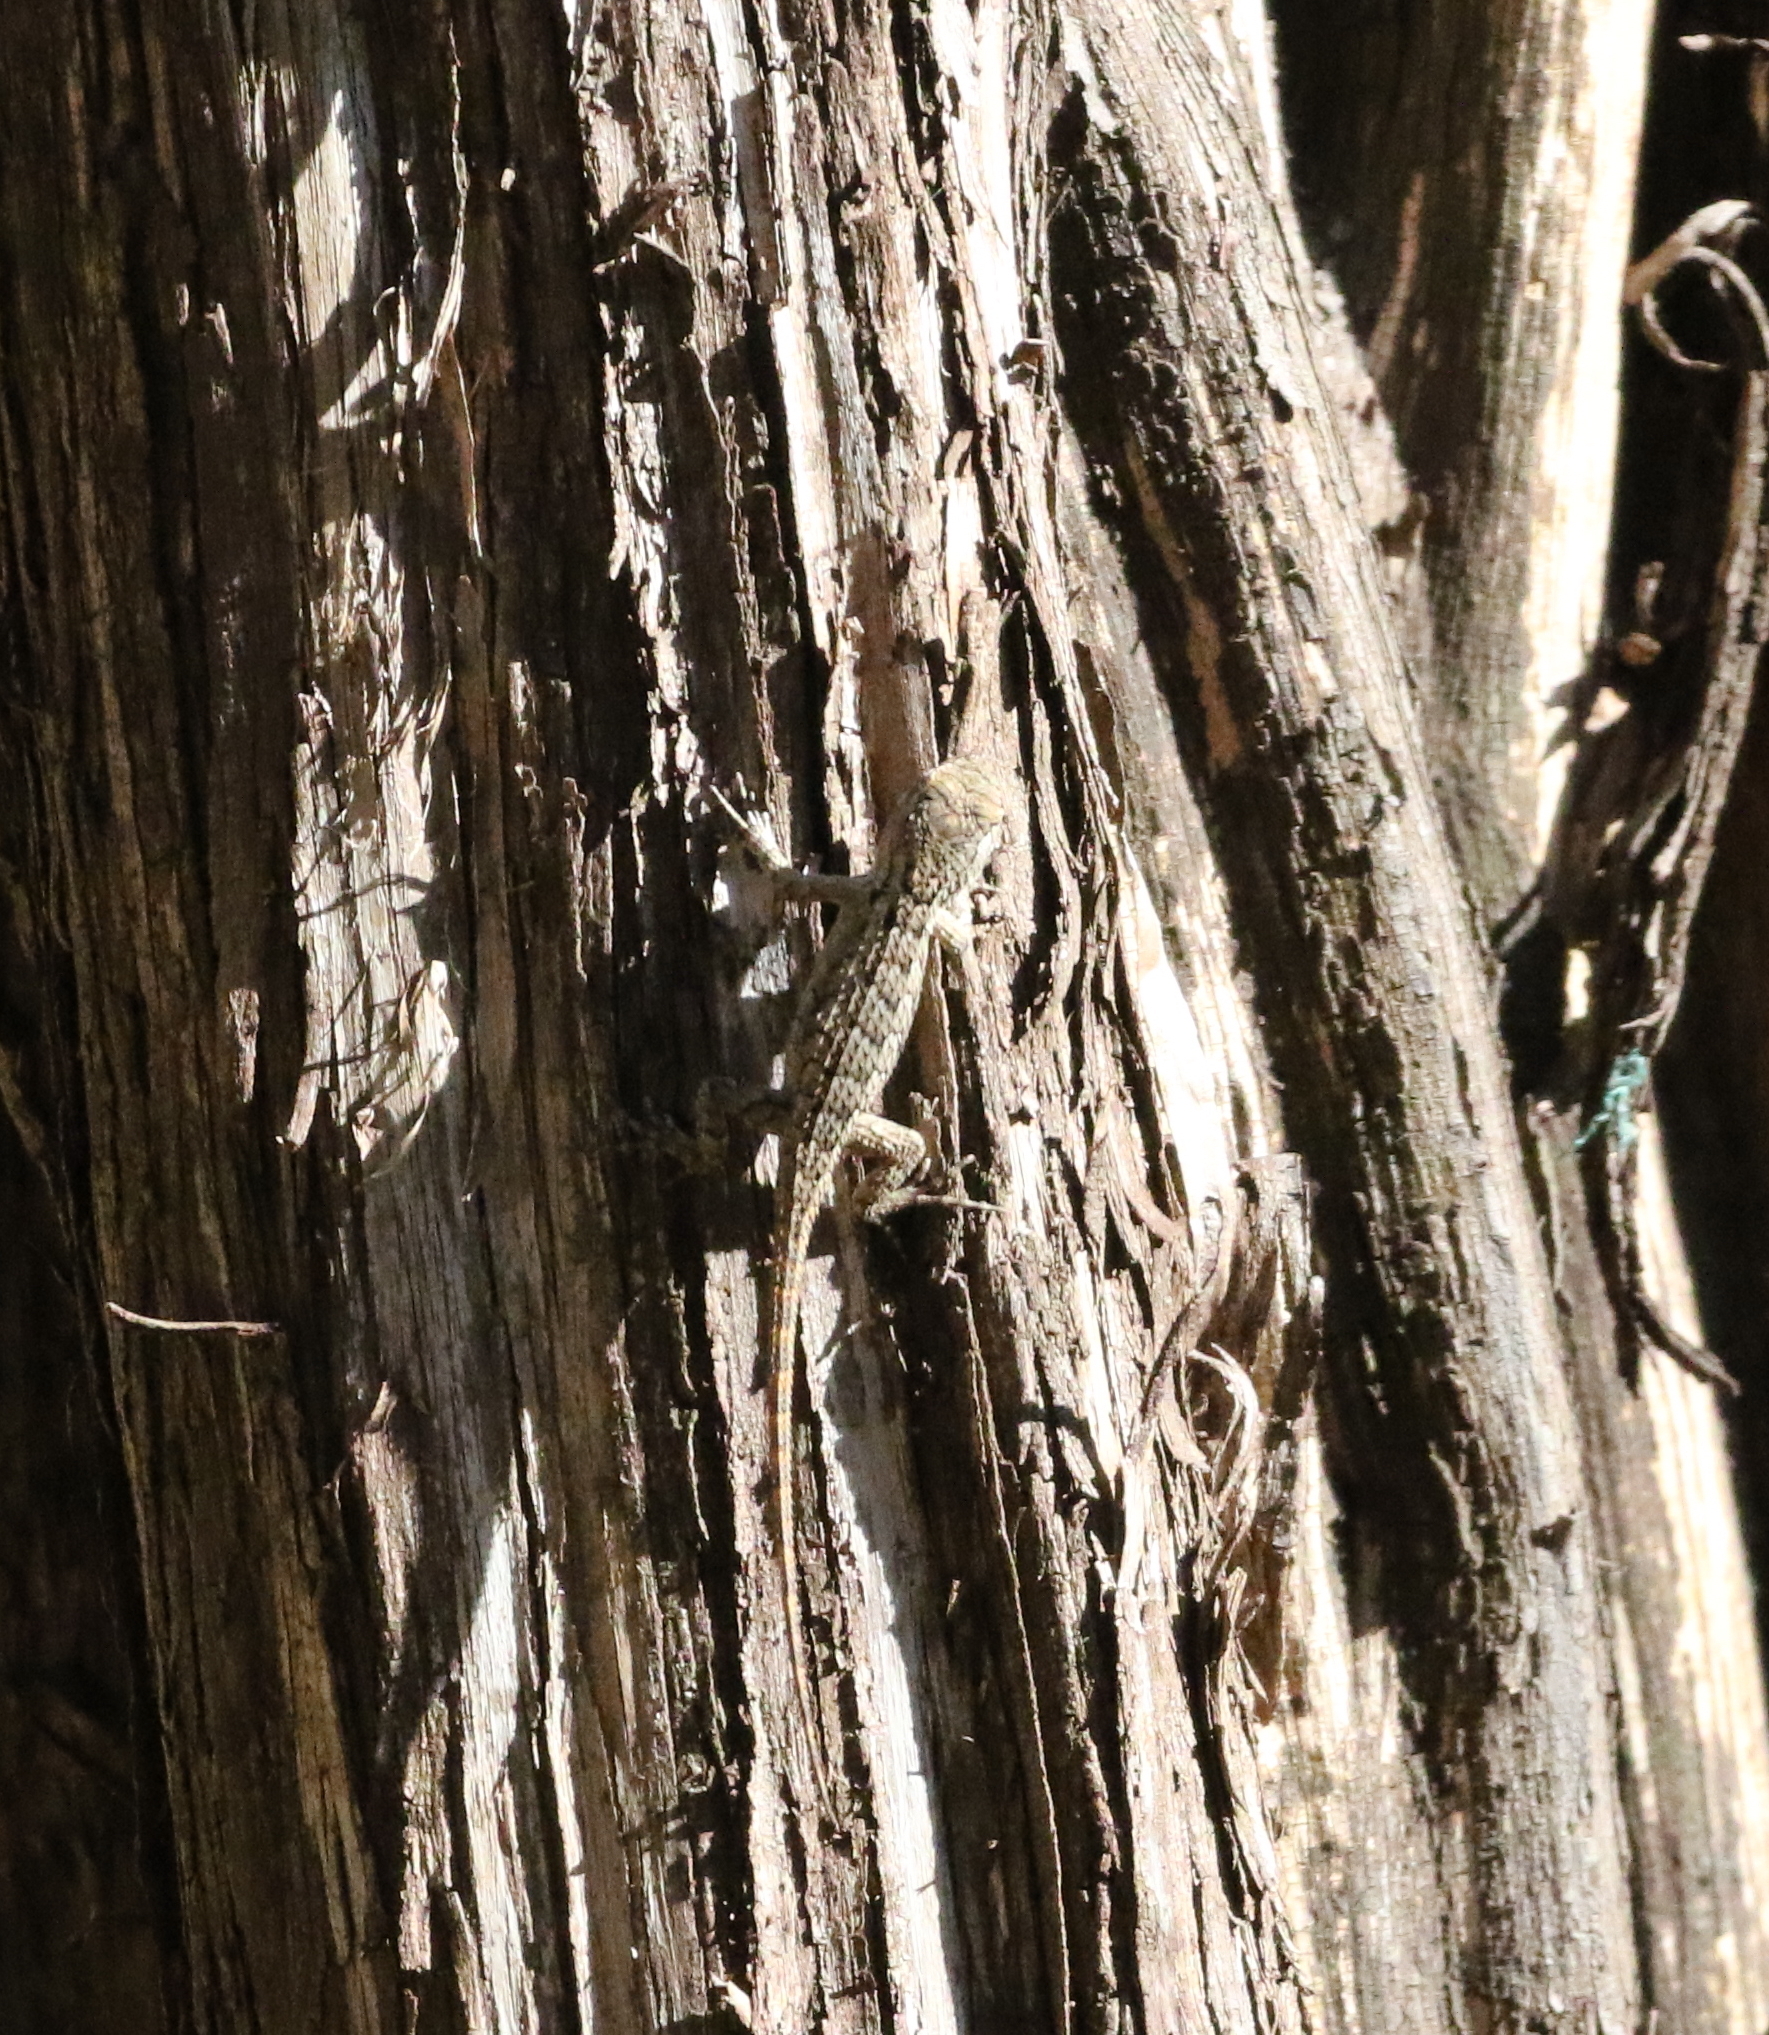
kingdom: Animalia
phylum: Chordata
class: Squamata
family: Phrynosomatidae
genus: Sceloporus
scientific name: Sceloporus olivaceus
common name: Texas spiny lizard
